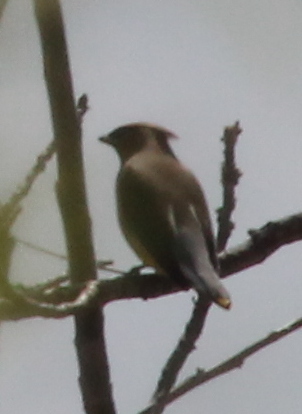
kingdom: Animalia
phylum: Chordata
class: Aves
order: Passeriformes
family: Bombycillidae
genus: Bombycilla
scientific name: Bombycilla cedrorum
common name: Cedar waxwing
